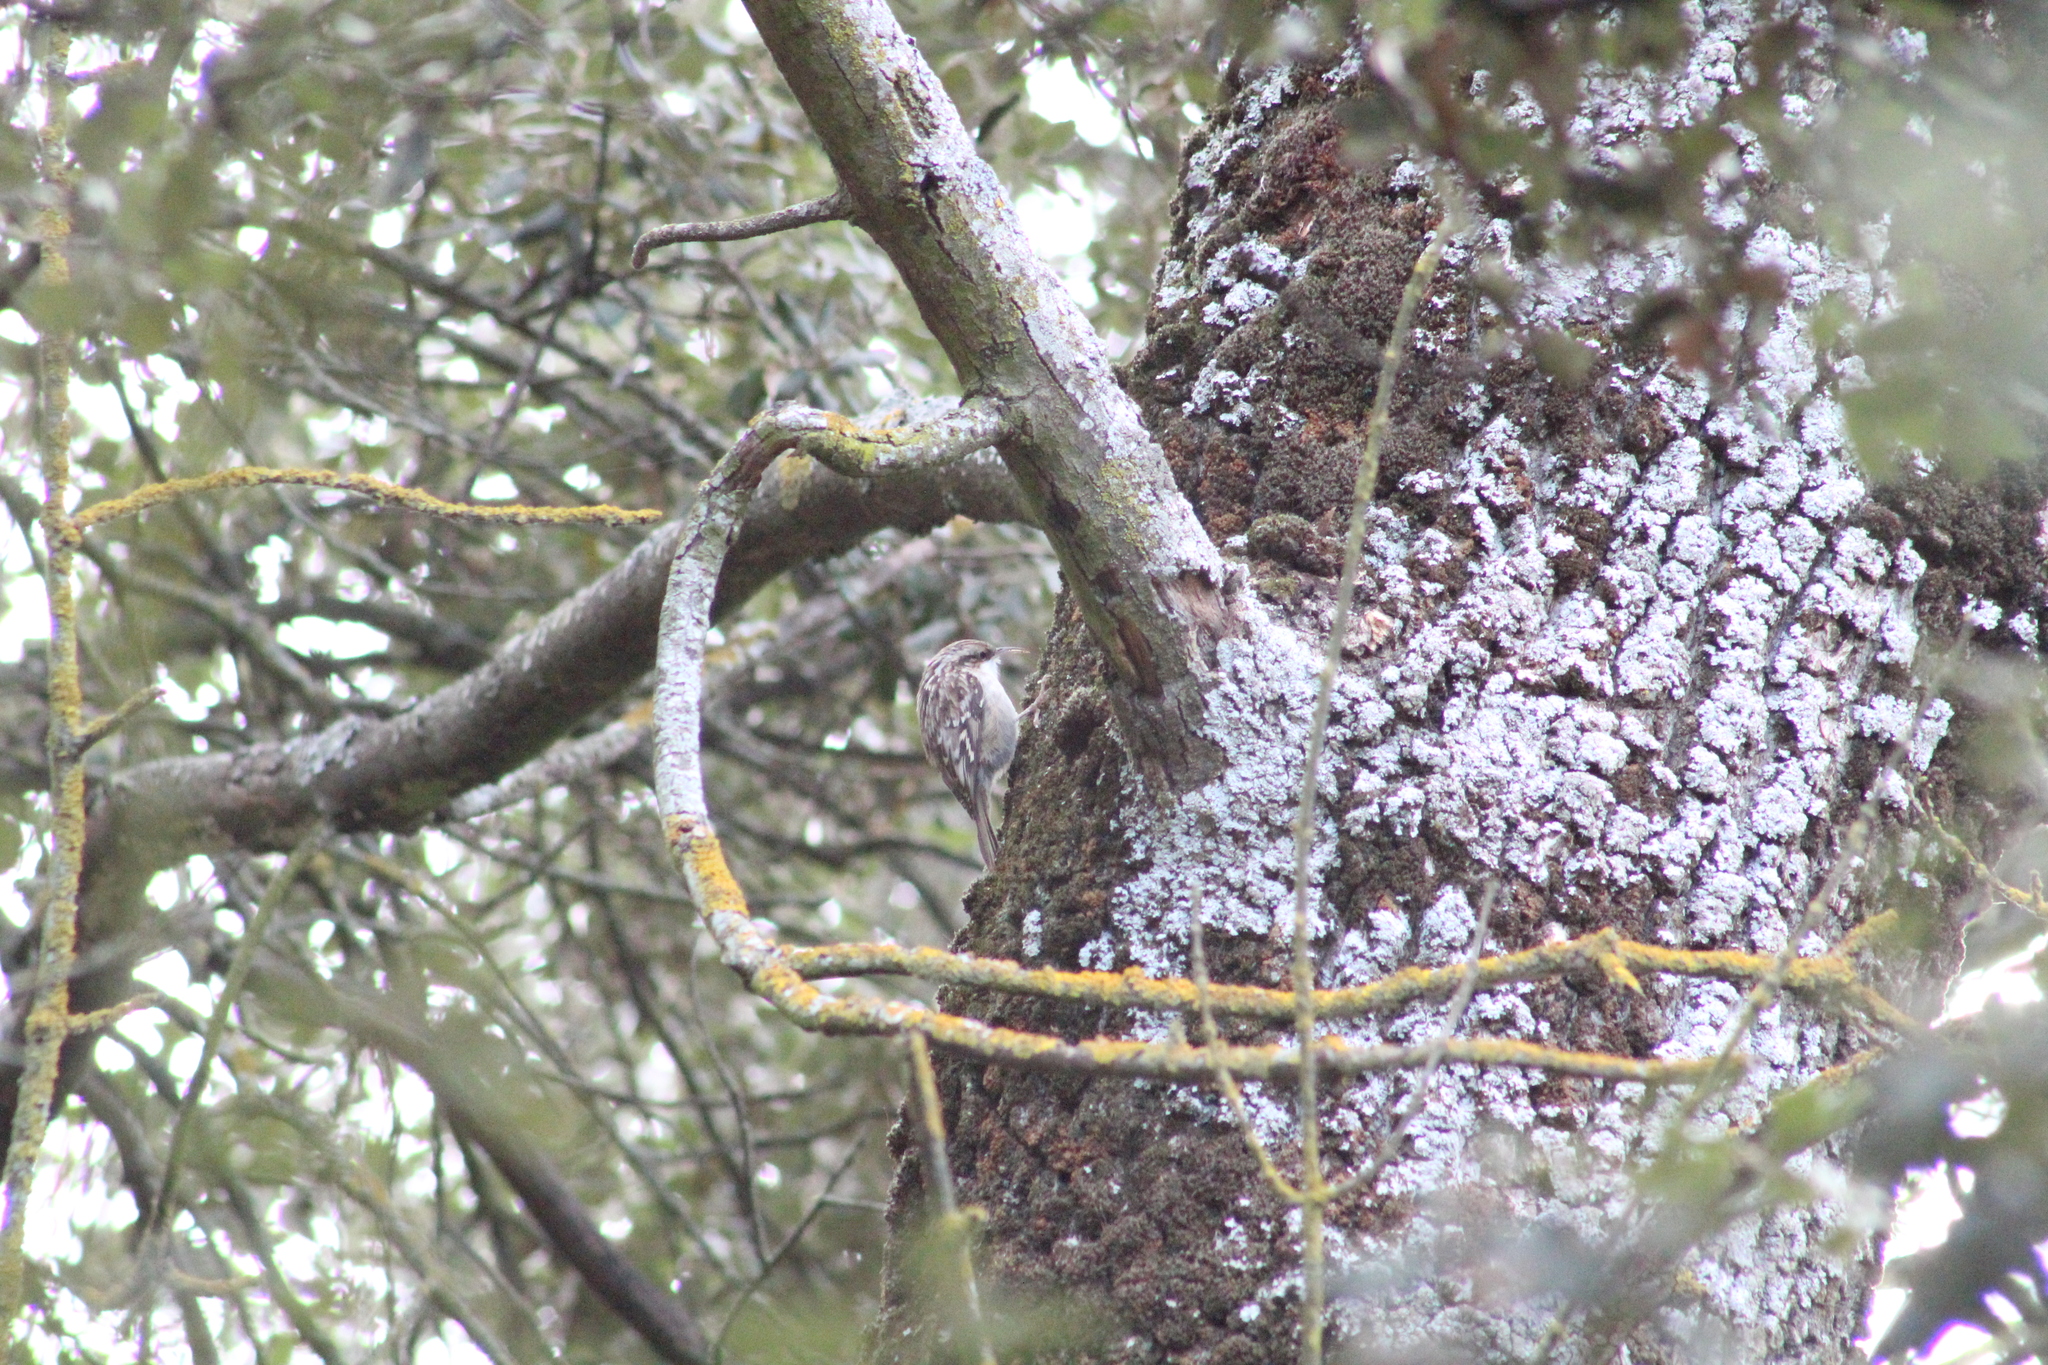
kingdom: Animalia
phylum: Chordata
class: Aves
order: Passeriformes
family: Certhiidae
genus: Certhia
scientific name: Certhia brachydactyla
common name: Short-toed treecreeper
